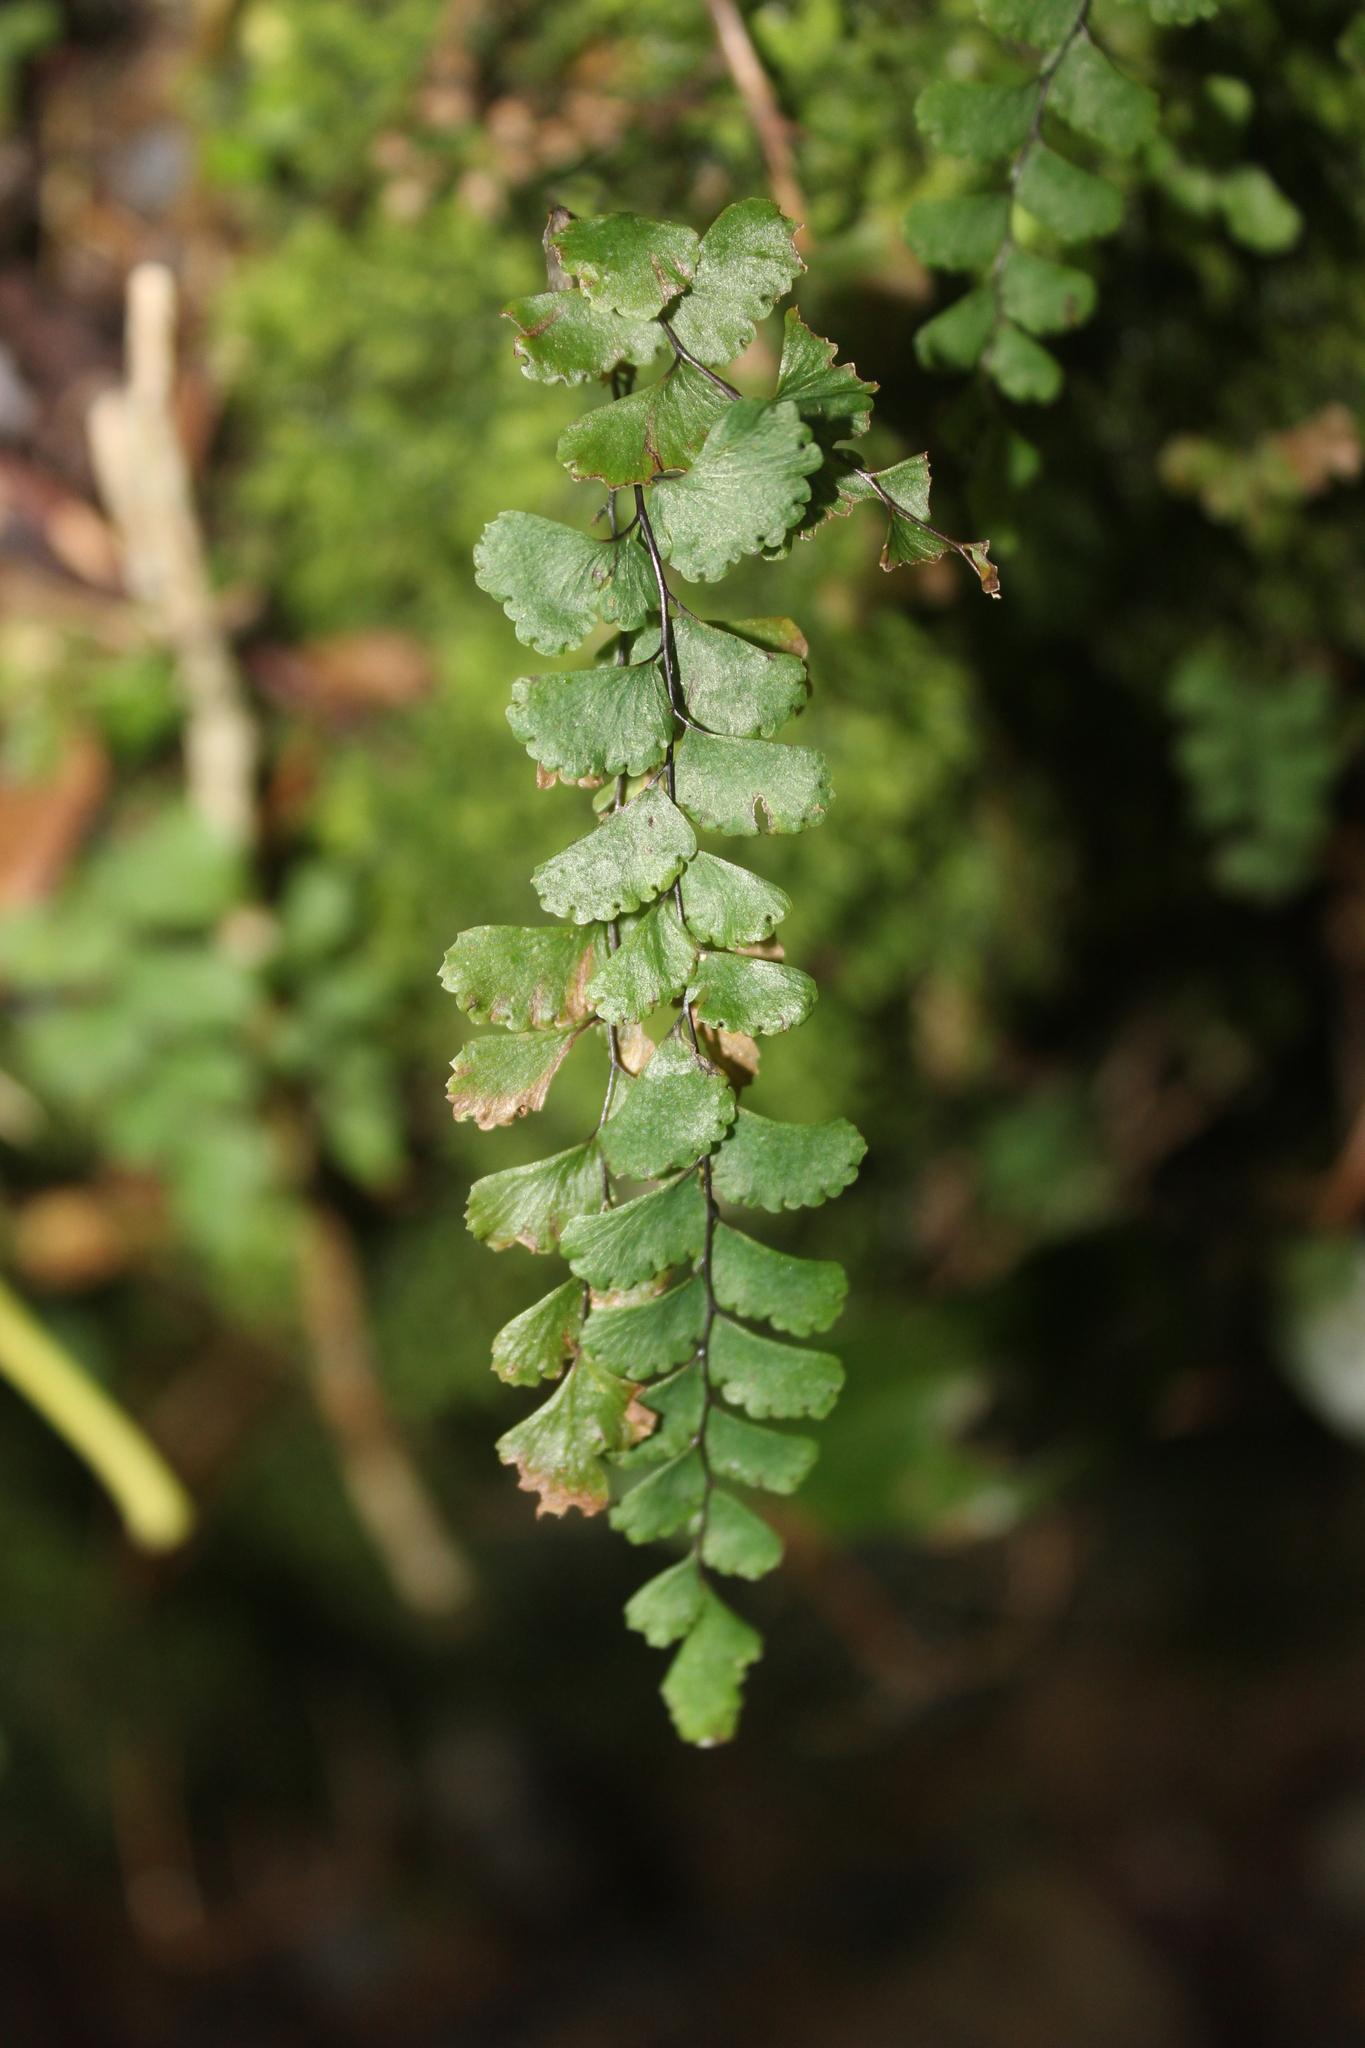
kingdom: Plantae
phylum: Tracheophyta
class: Polypodiopsida
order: Polypodiales
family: Pteridaceae
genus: Adiantum
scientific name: Adiantum diaphanum
